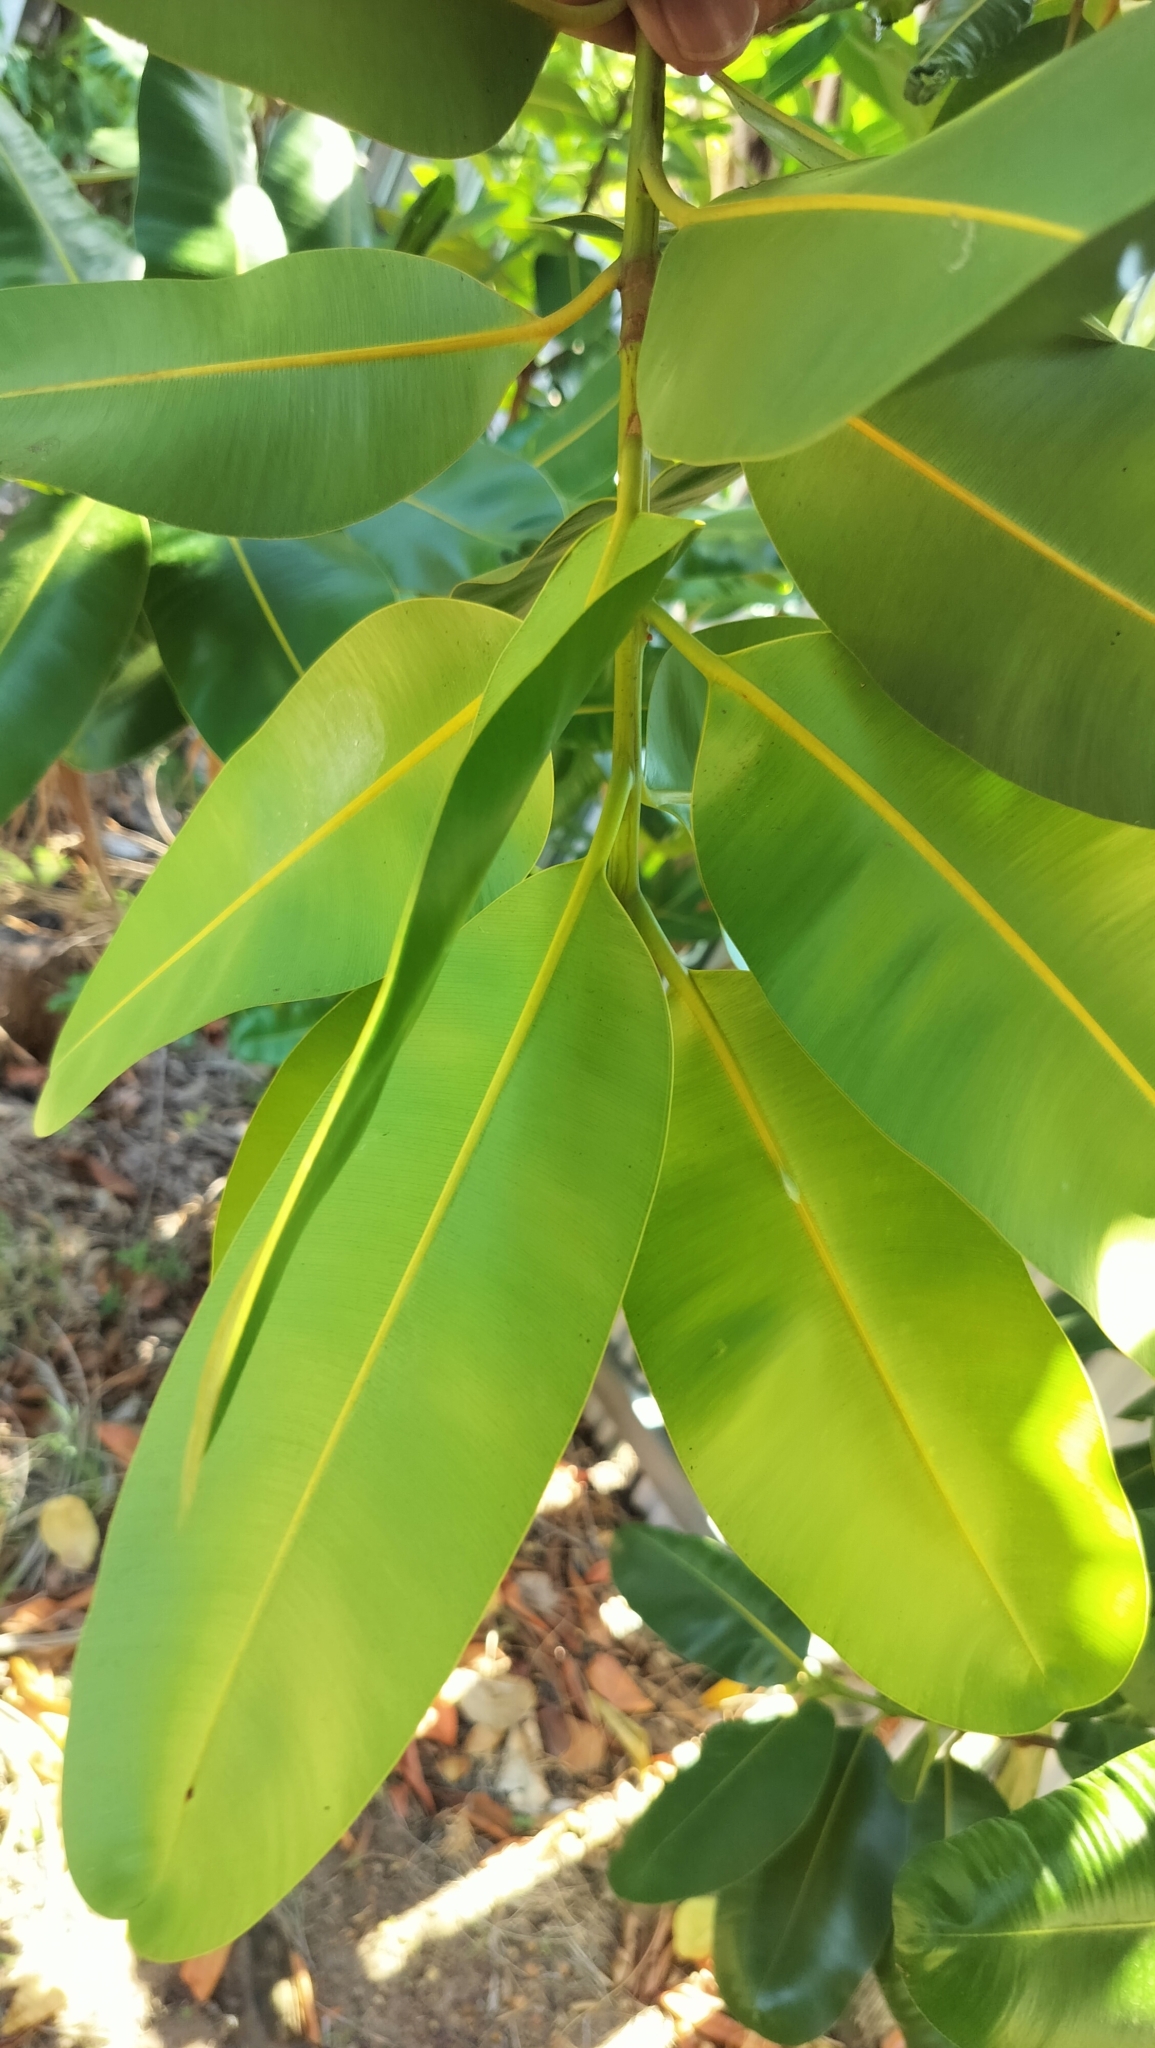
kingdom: Plantae
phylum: Tracheophyta
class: Magnoliopsida
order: Malpighiales
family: Calophyllaceae
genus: Calophyllum
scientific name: Calophyllum inophyllum
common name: Alexandrian laurel
